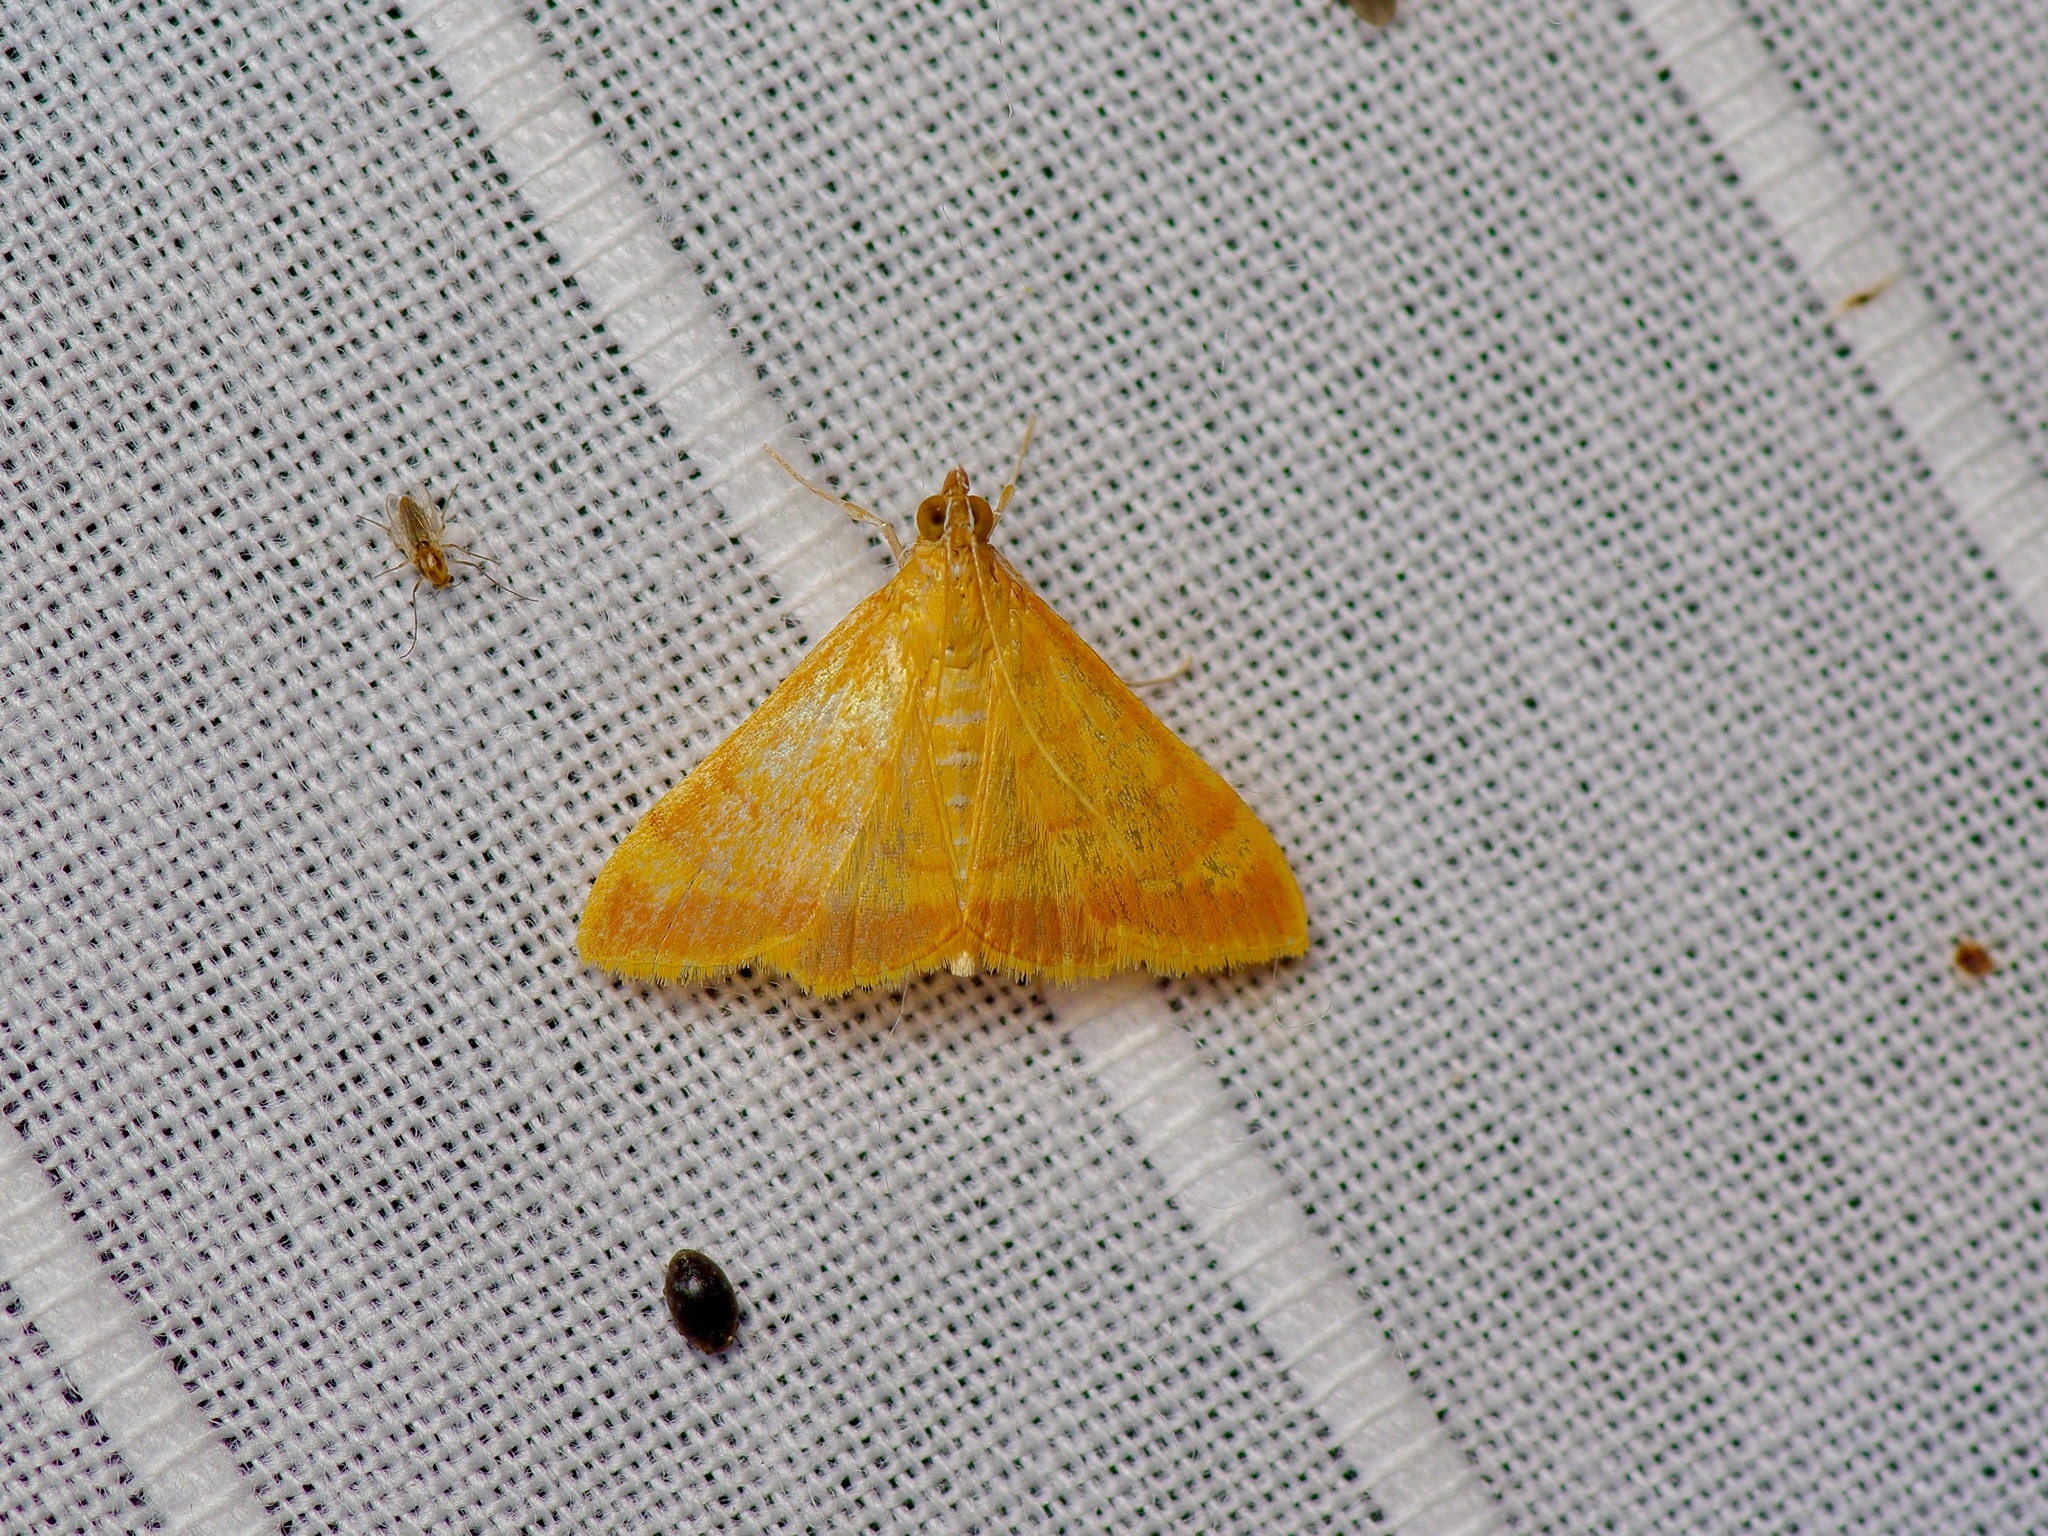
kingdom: Animalia
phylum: Arthropoda
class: Insecta
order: Lepidoptera
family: Crambidae
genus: Pyrausta
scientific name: Pyrausta pseudonythesalis
